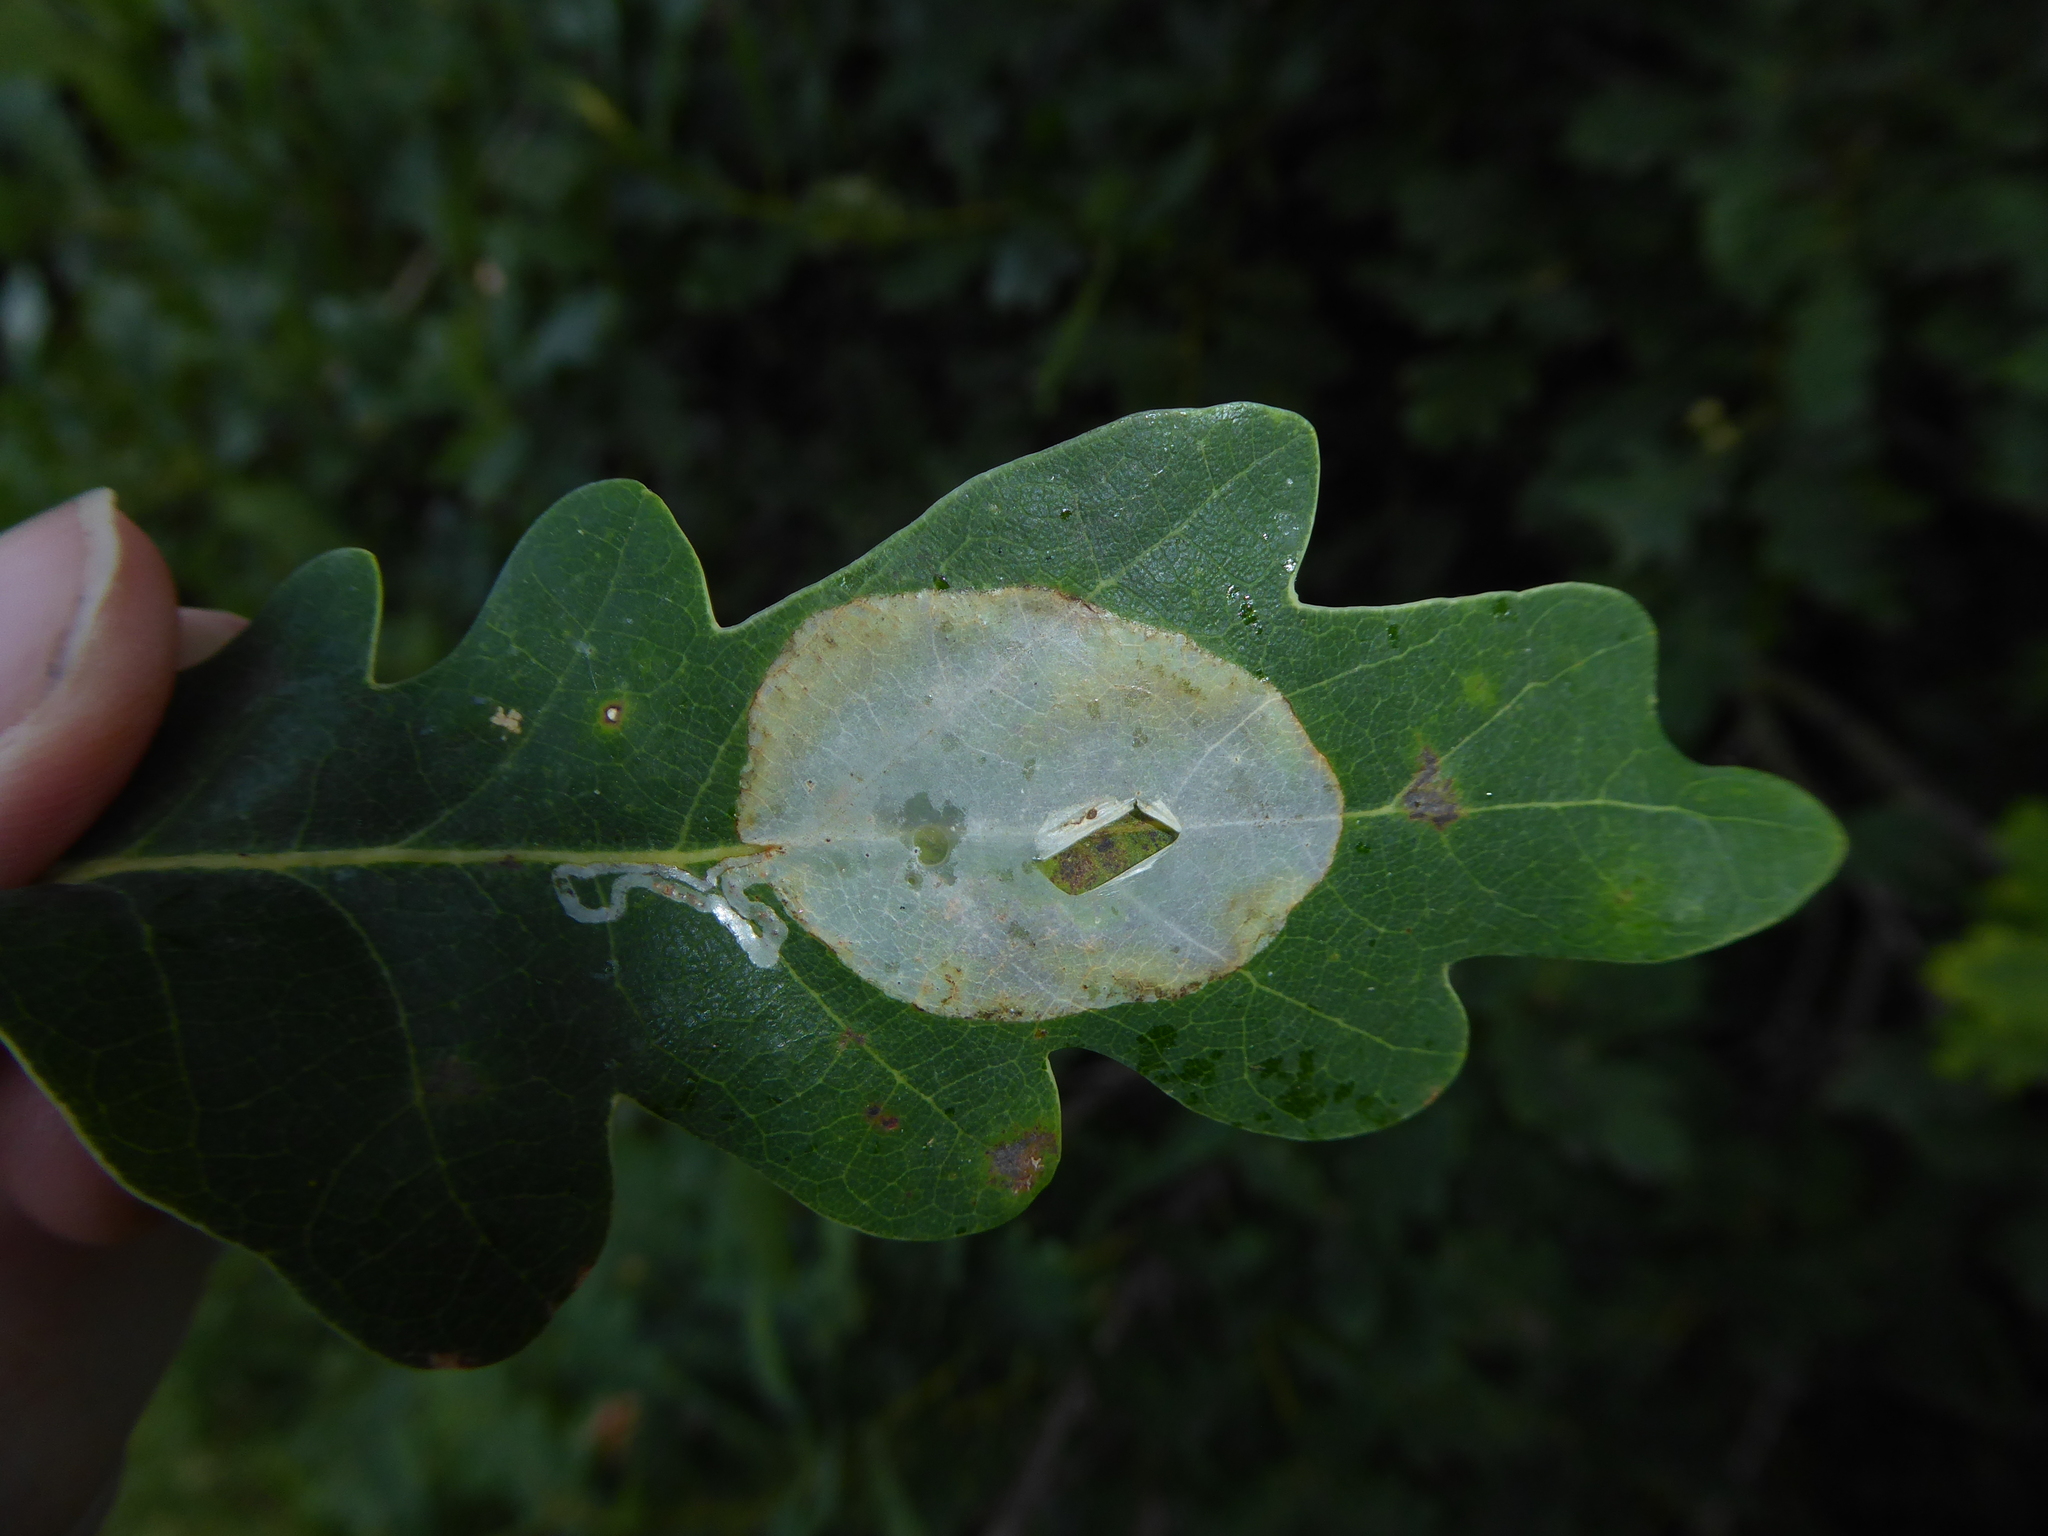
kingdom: Animalia
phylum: Arthropoda
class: Insecta
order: Lepidoptera
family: Gracillariidae
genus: Acrocercops
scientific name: Acrocercops brongniardella
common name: Brown oak slender
